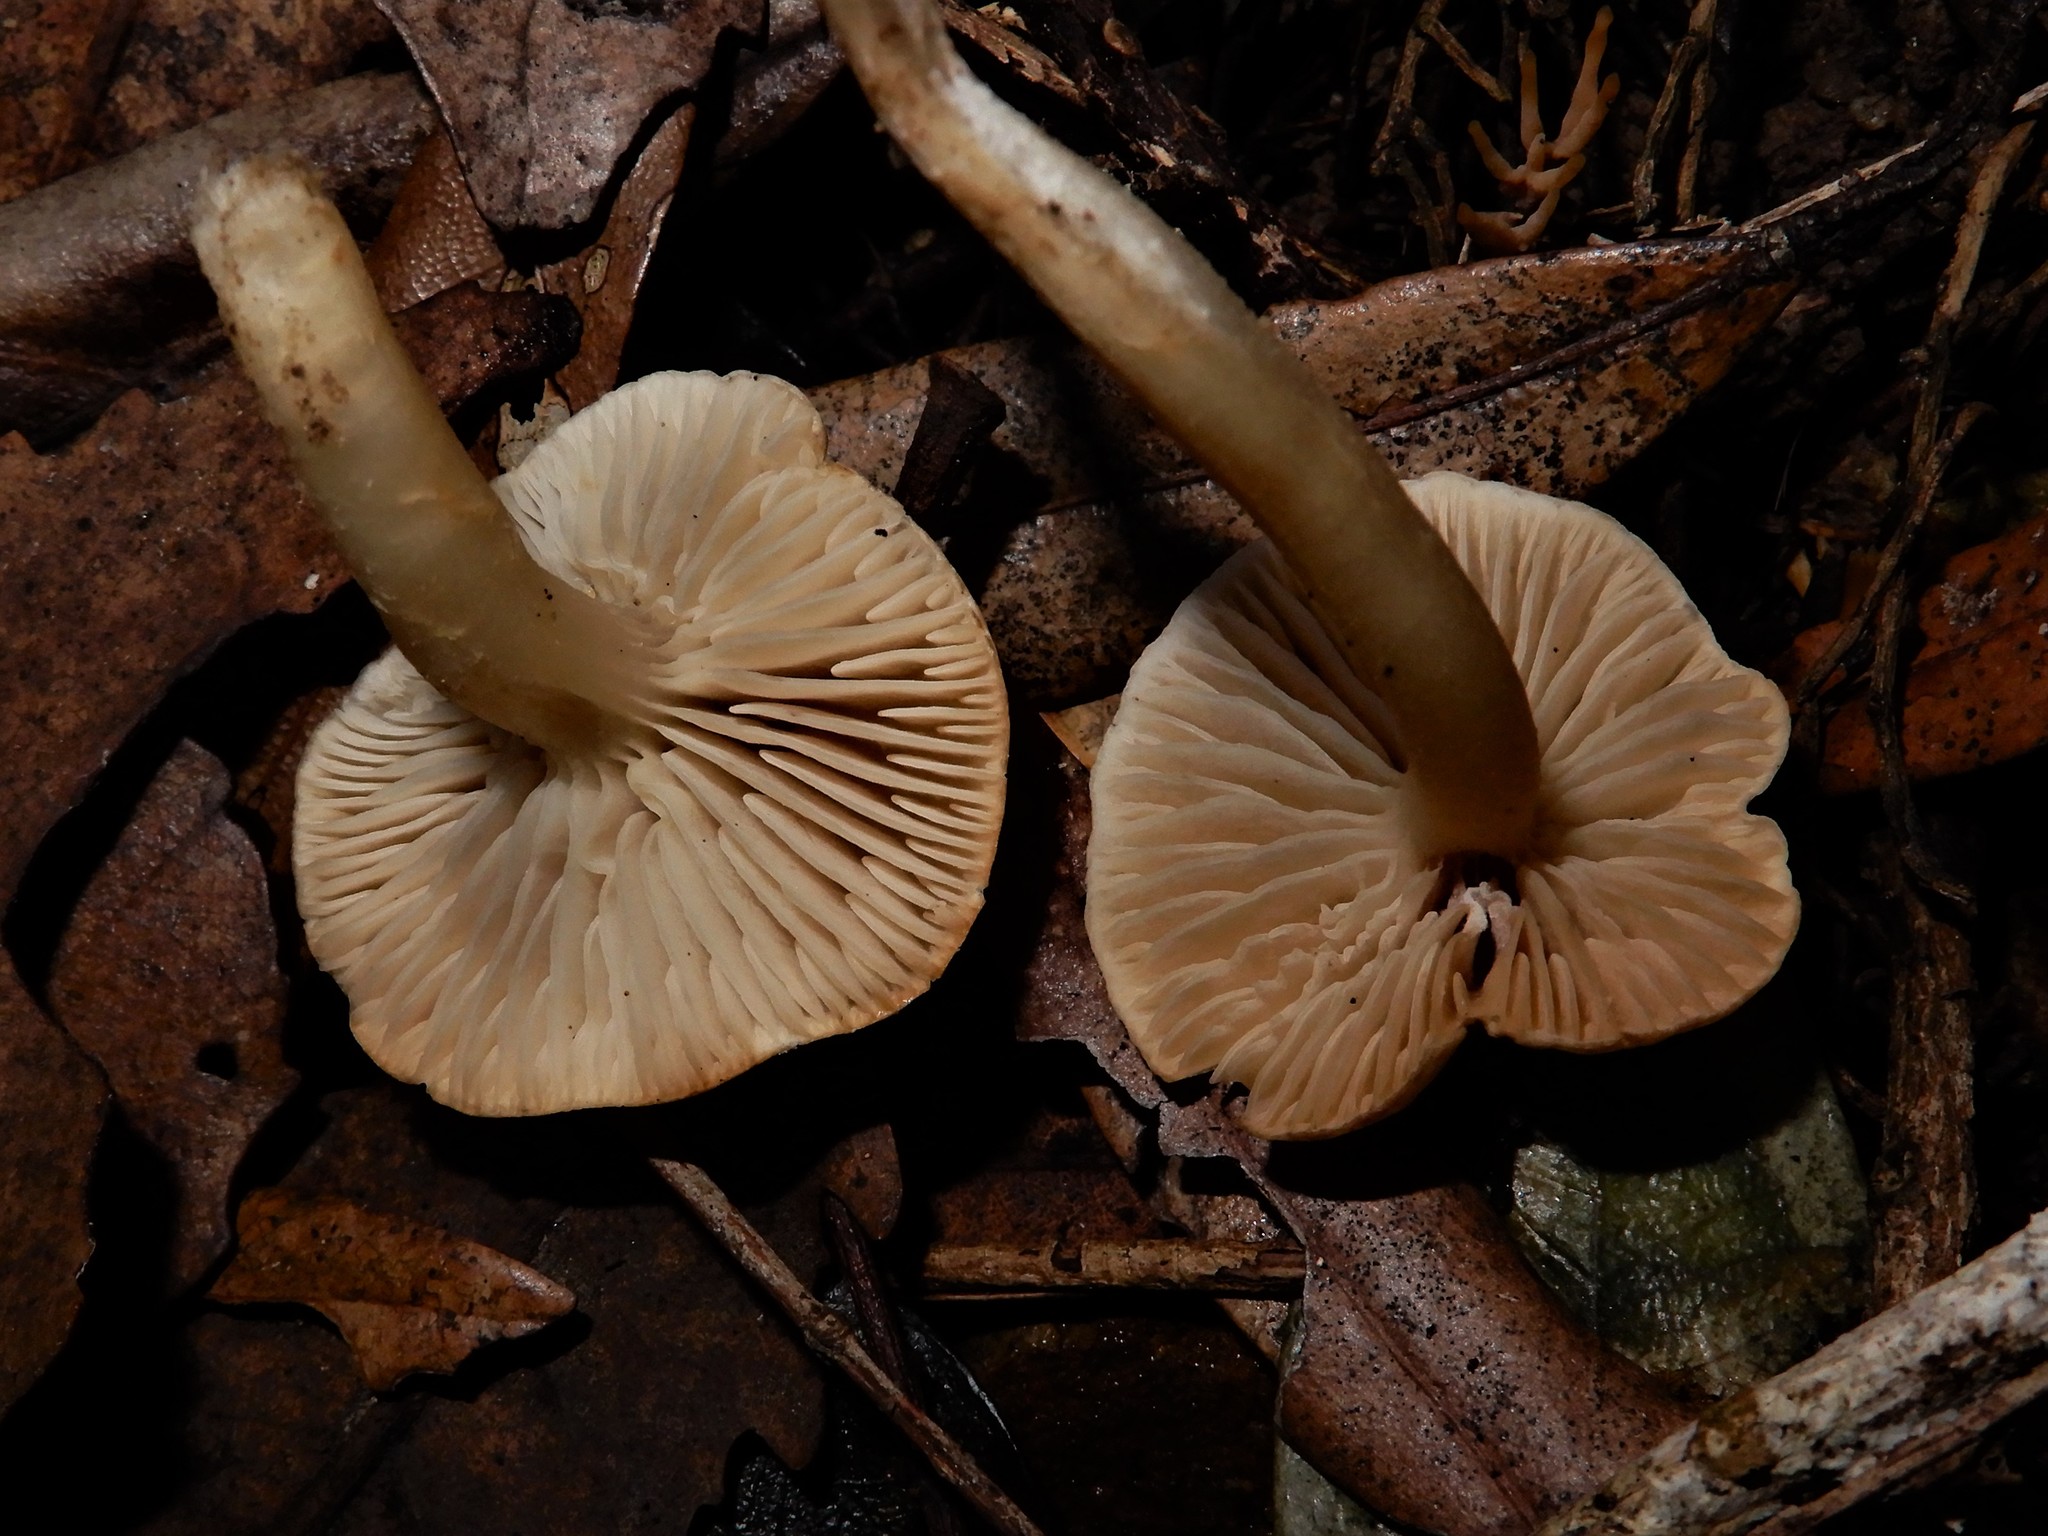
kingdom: Fungi
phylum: Basidiomycota
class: Agaricomycetes
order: Agaricales
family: Tricholomataceae
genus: Pseudotricholoma
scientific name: Pseudotricholoma
